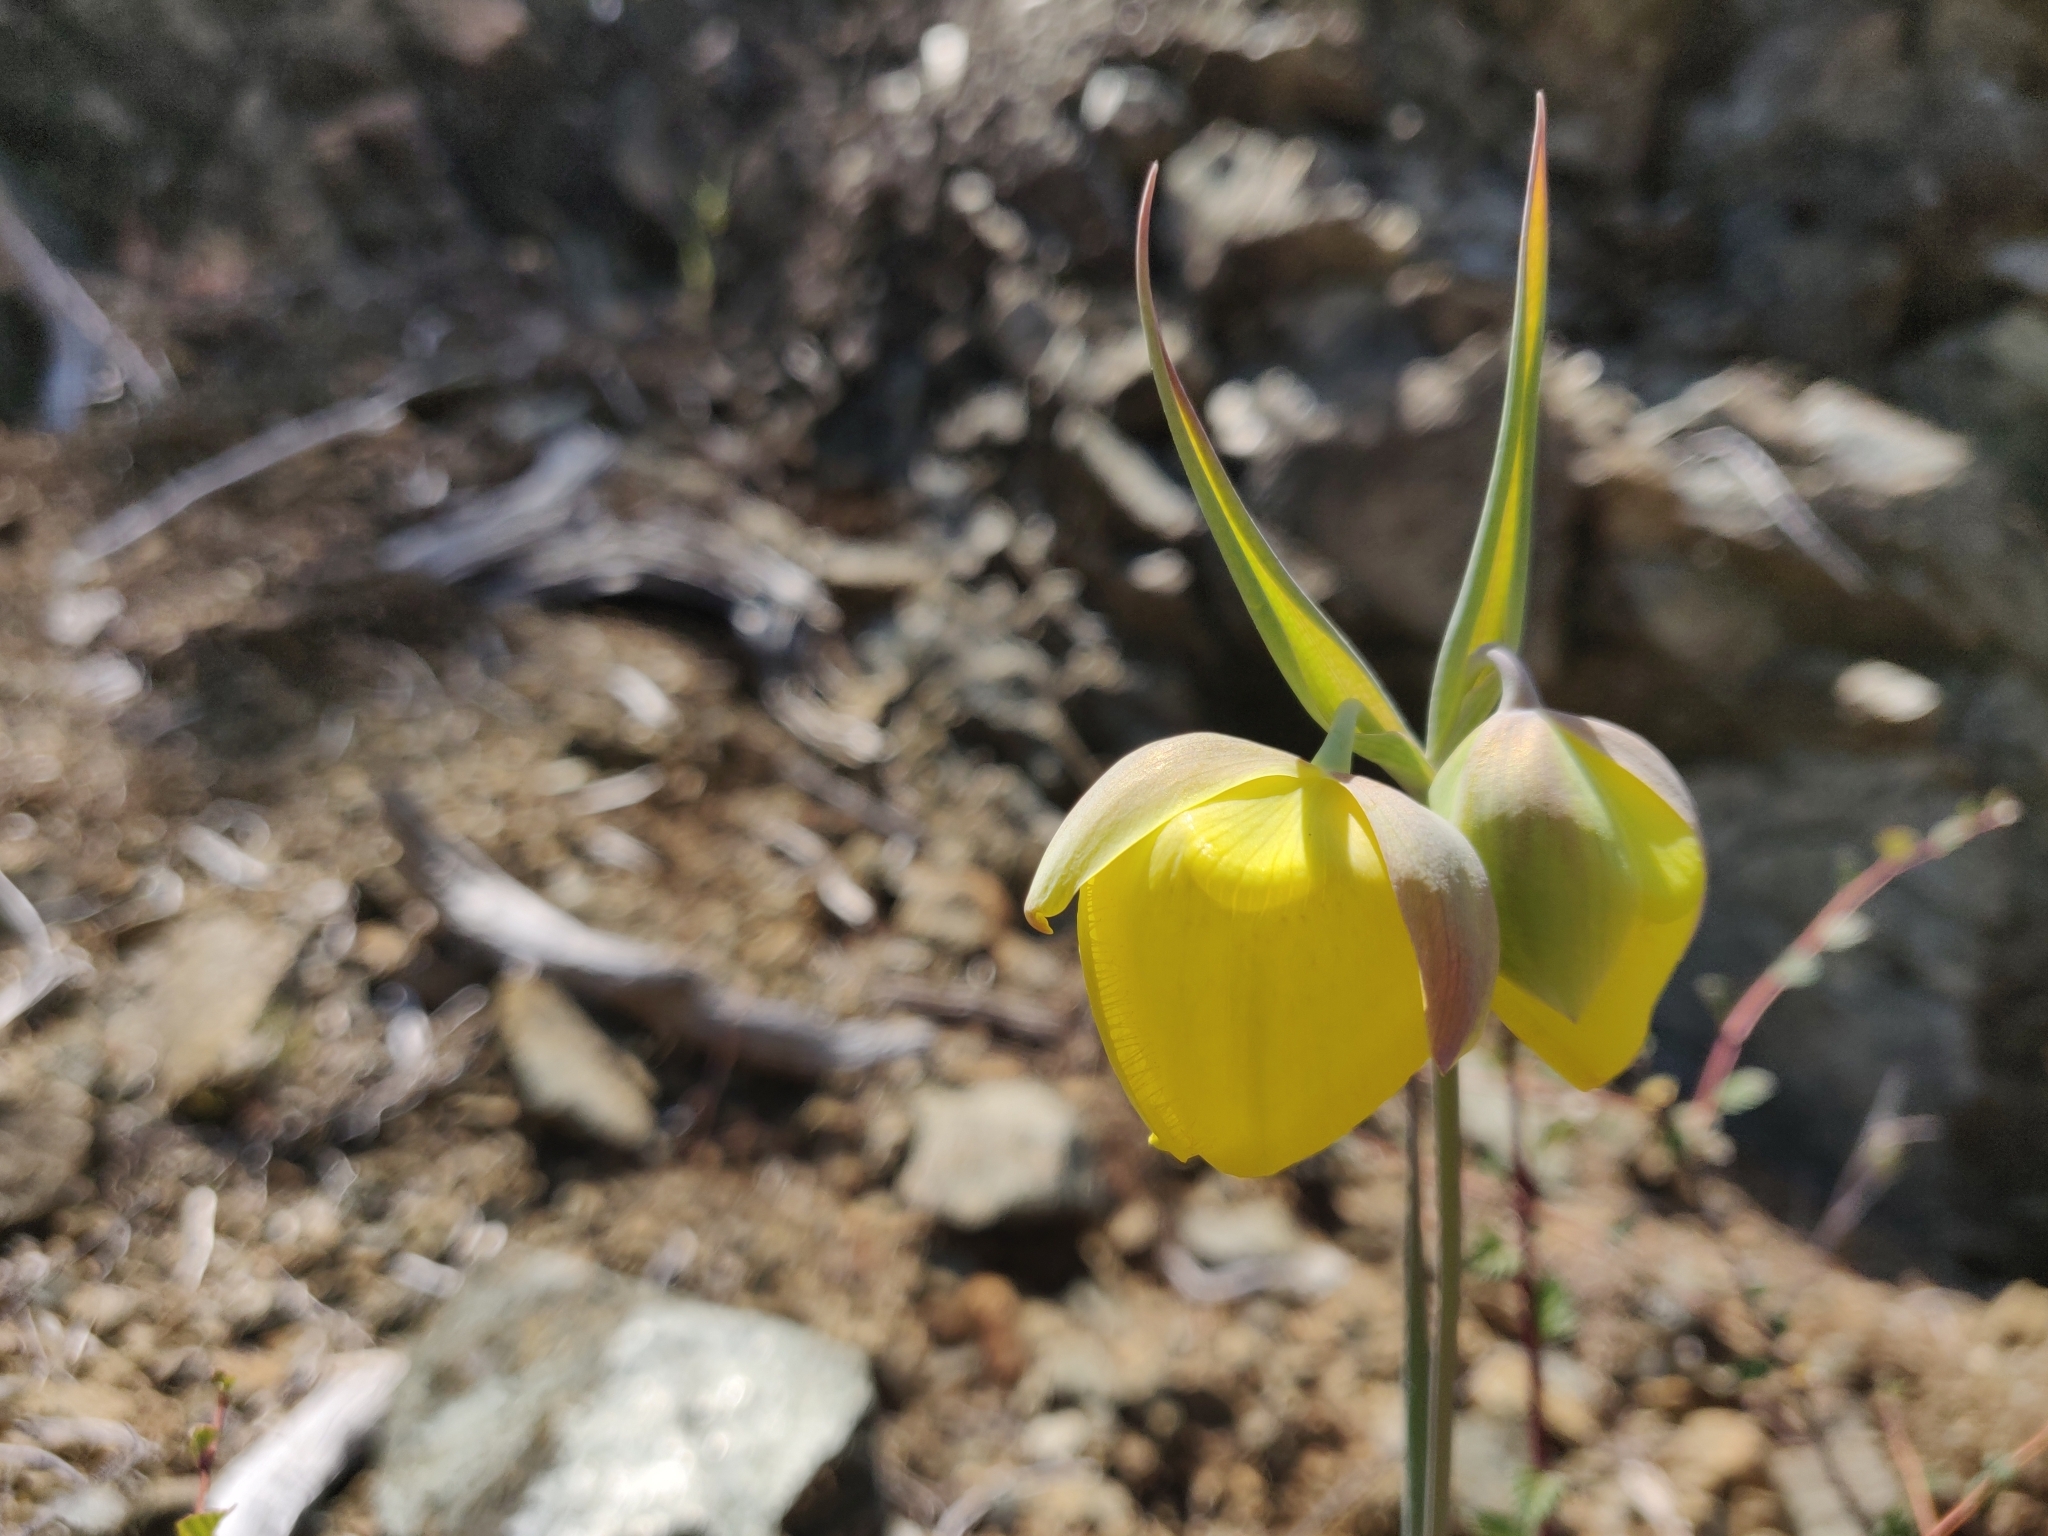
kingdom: Plantae
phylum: Tracheophyta
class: Liliopsida
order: Liliales
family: Liliaceae
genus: Calochortus
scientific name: Calochortus raichei
